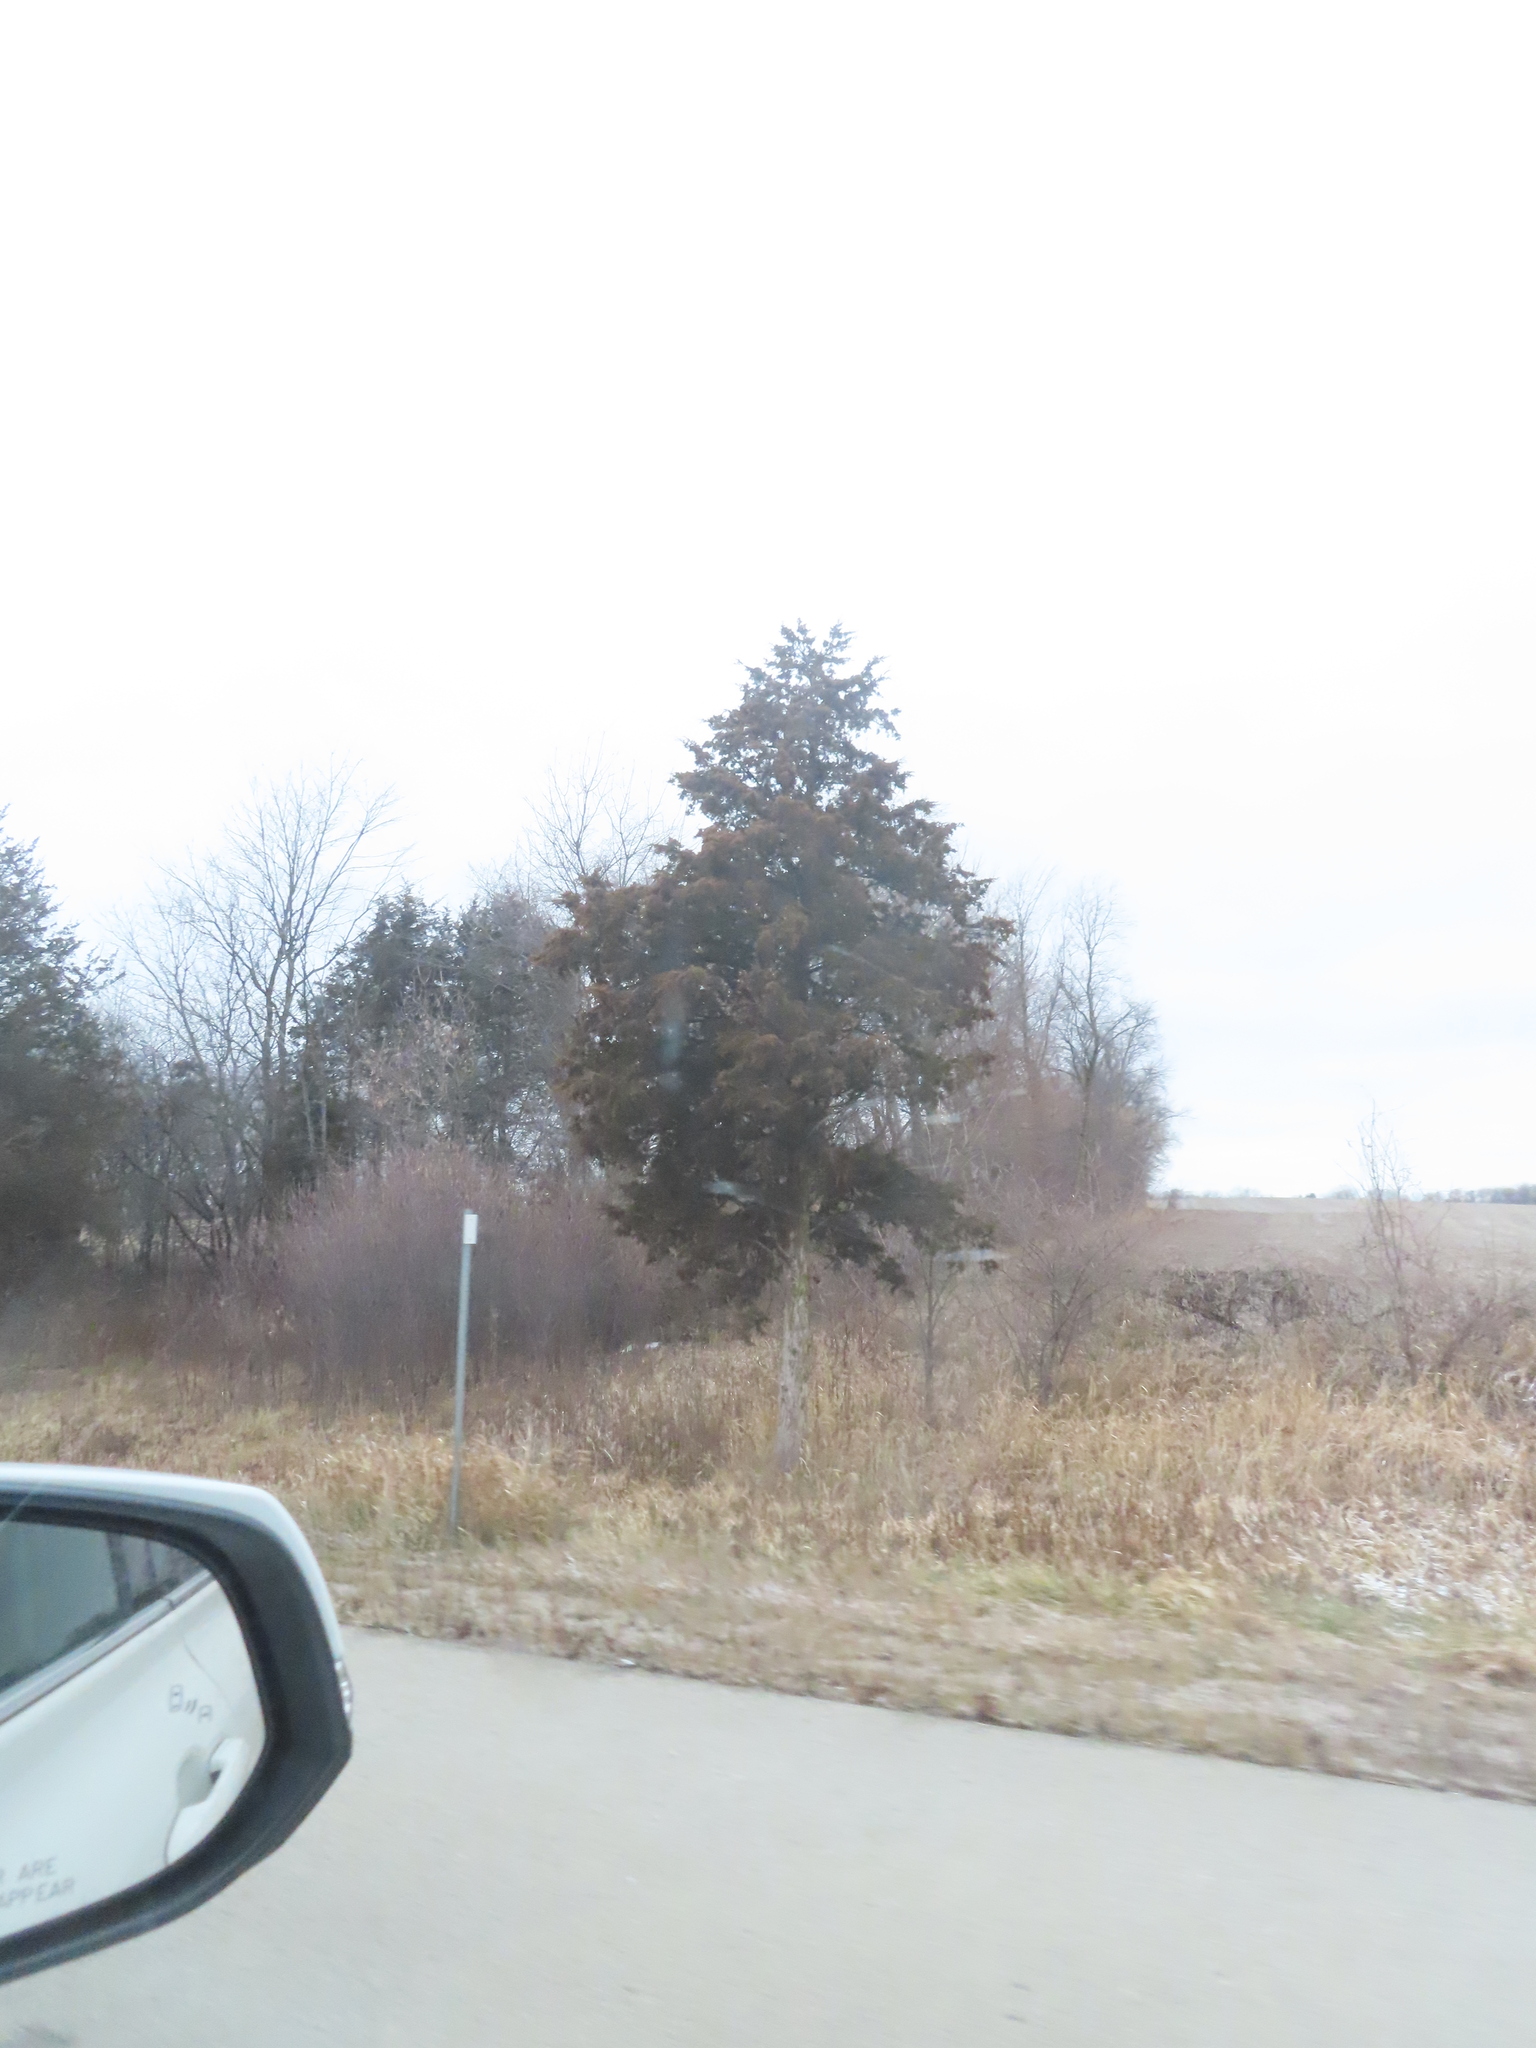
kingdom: Plantae
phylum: Tracheophyta
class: Pinopsida
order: Pinales
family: Cupressaceae
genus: Juniperus
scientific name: Juniperus virginiana
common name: Red juniper
